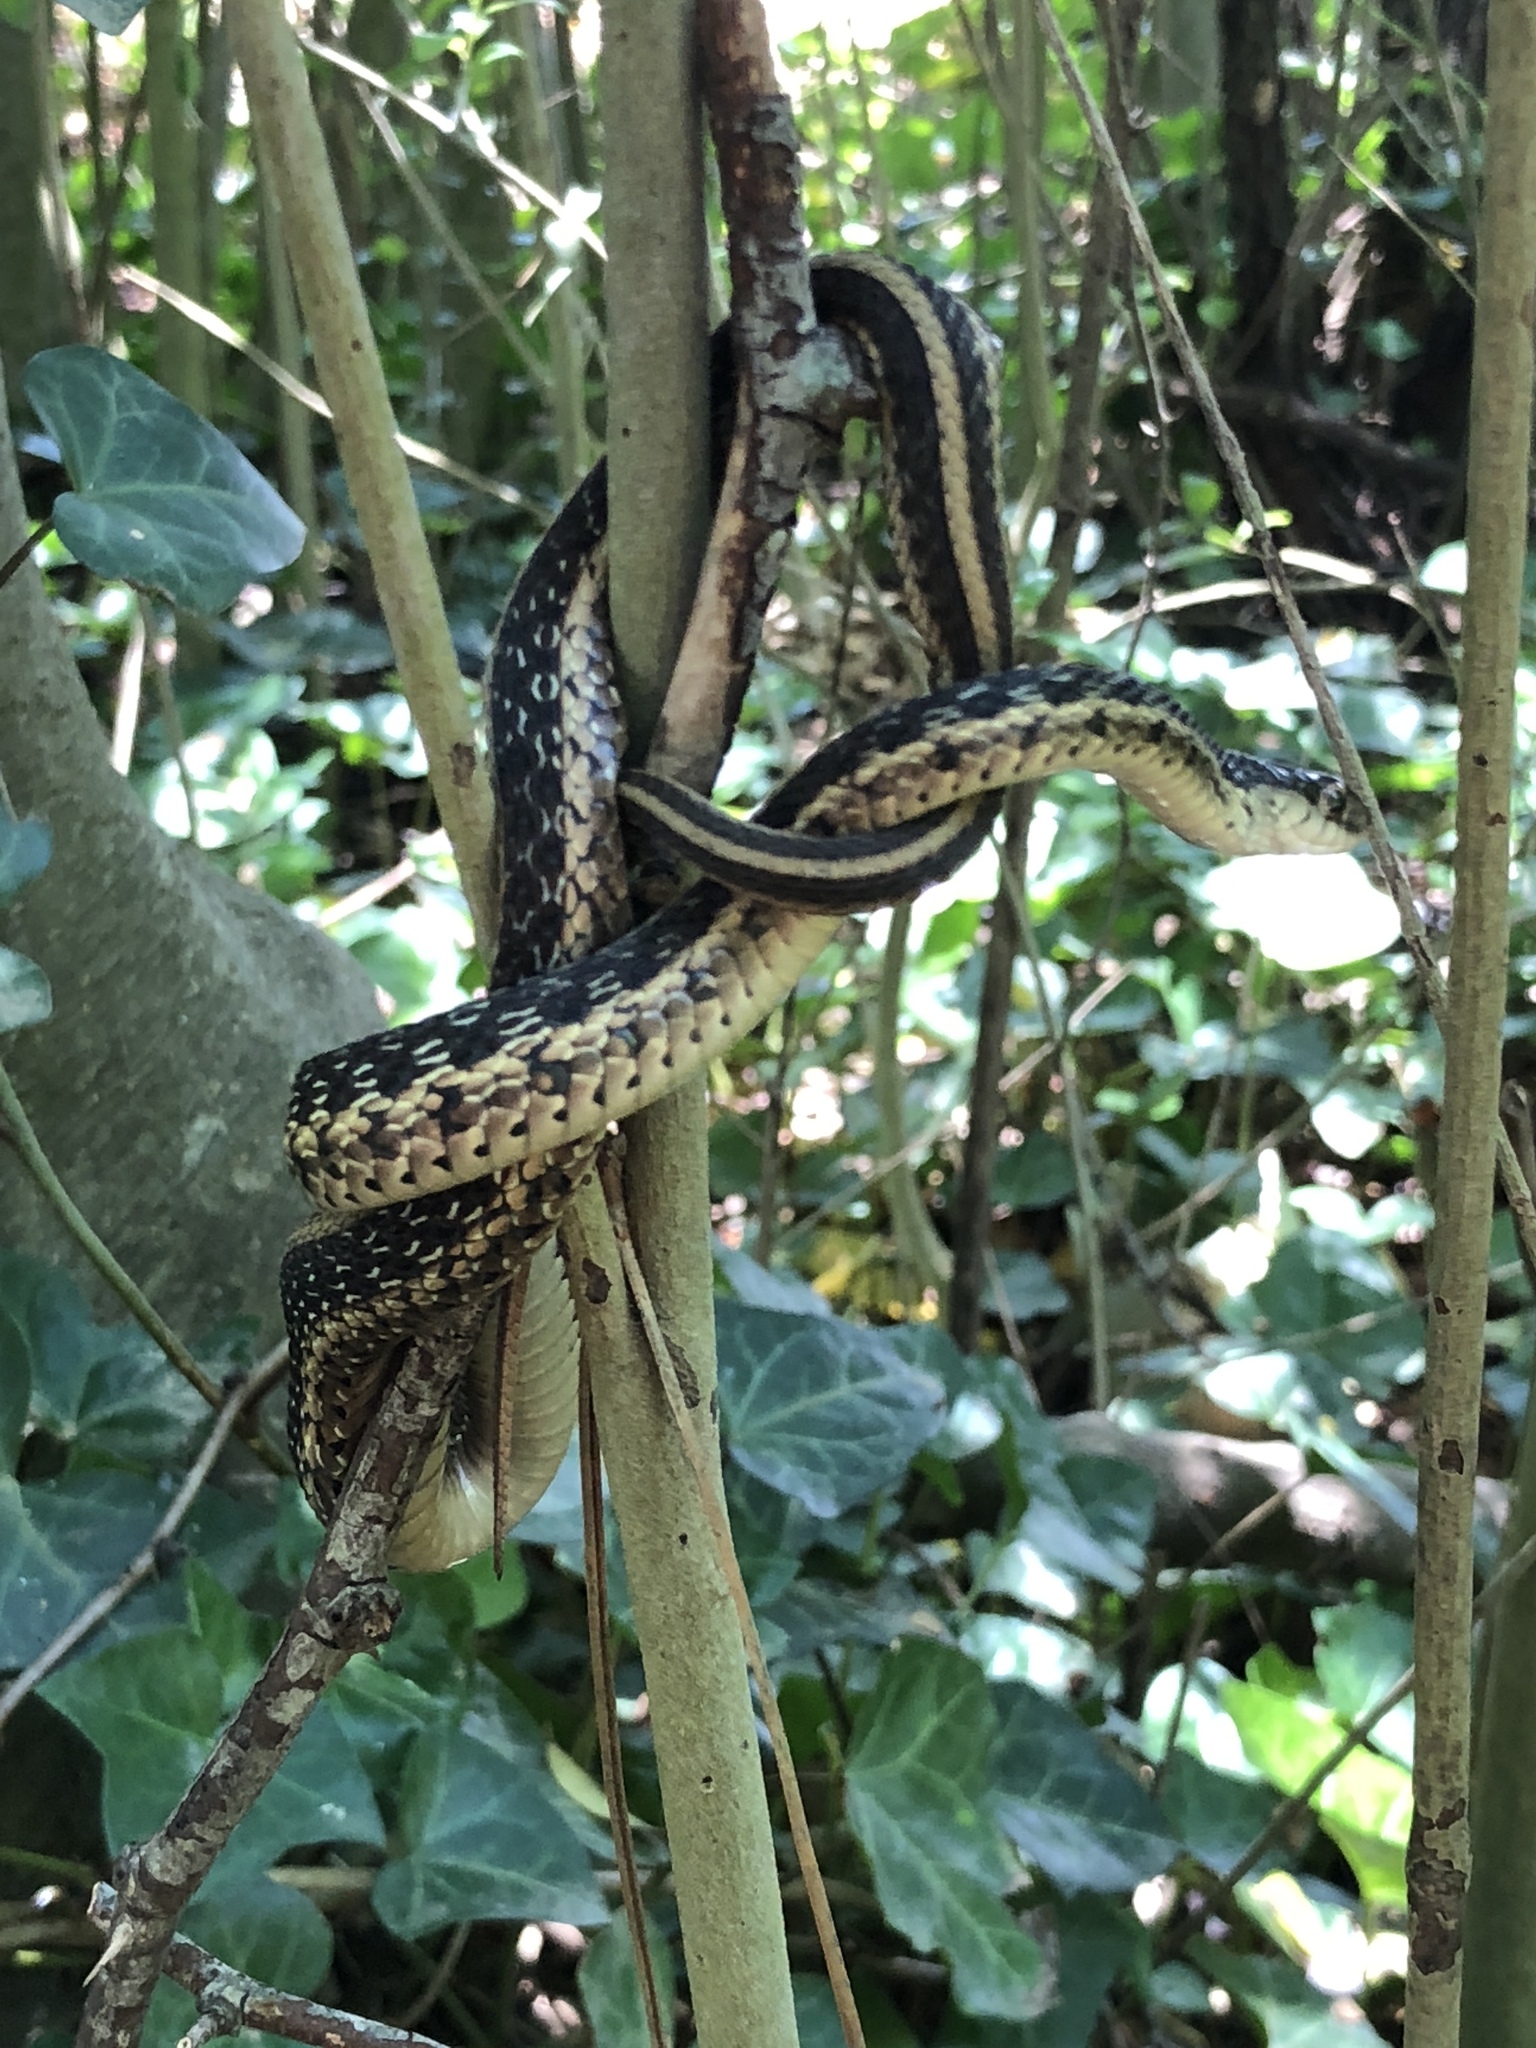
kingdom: Animalia
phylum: Chordata
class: Squamata
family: Colubridae
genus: Thamnophis
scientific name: Thamnophis sirtalis
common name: Common garter snake
